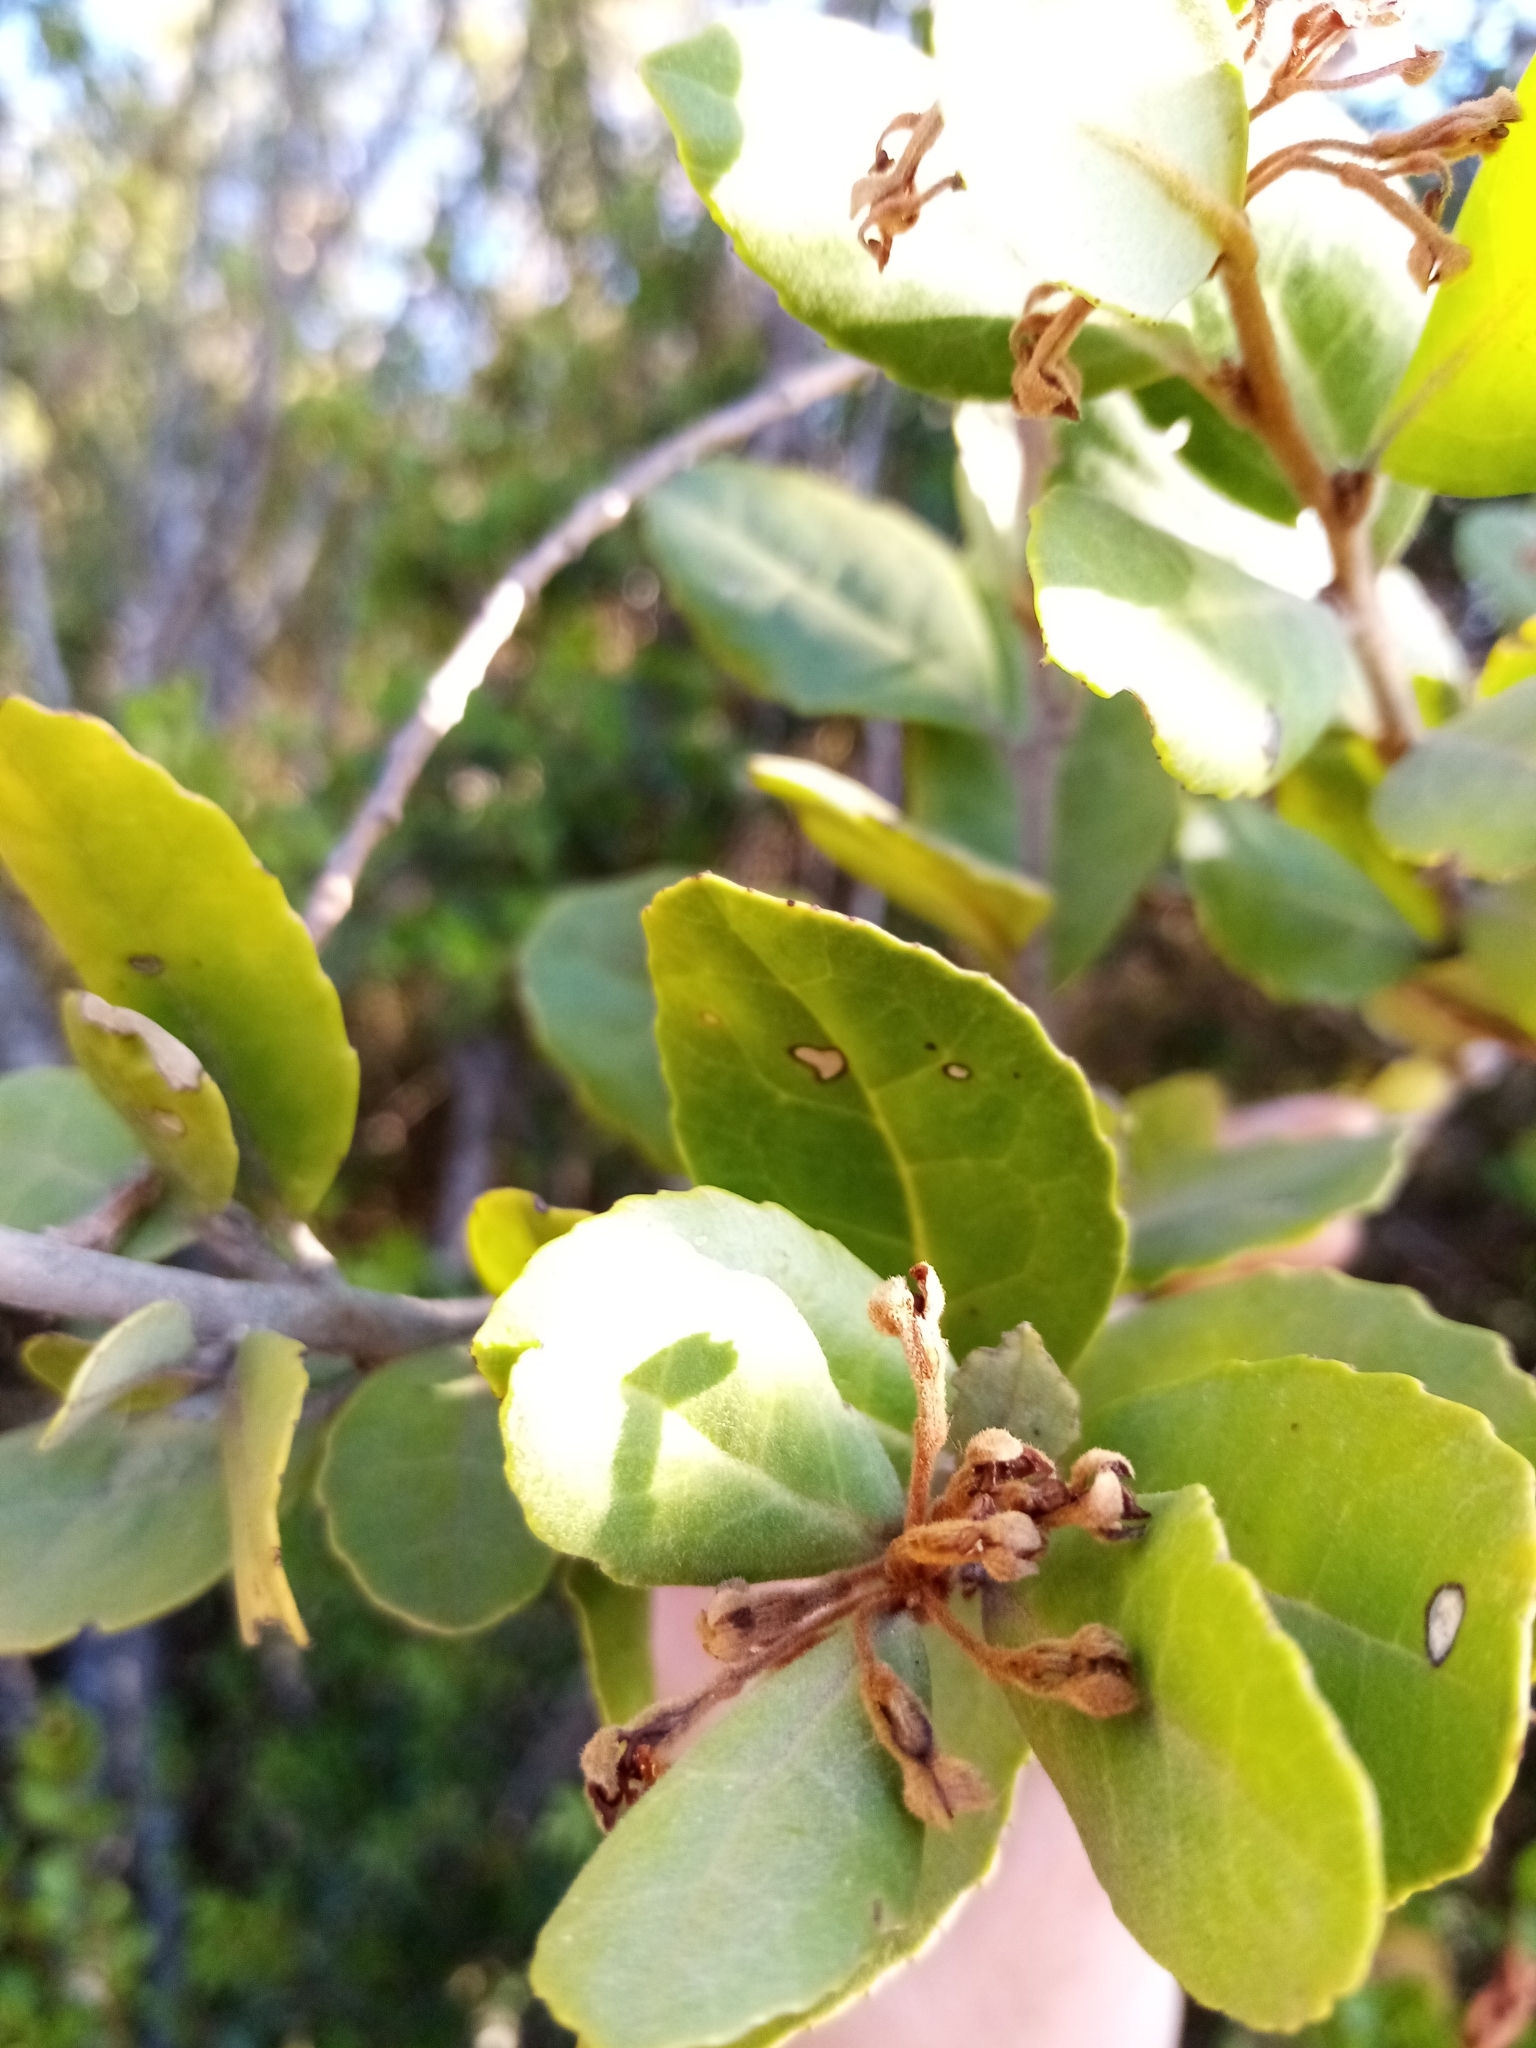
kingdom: Plantae
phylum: Tracheophyta
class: Magnoliopsida
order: Proteales
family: Proteaceae
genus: Lomatia
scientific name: Lomatia dentata
